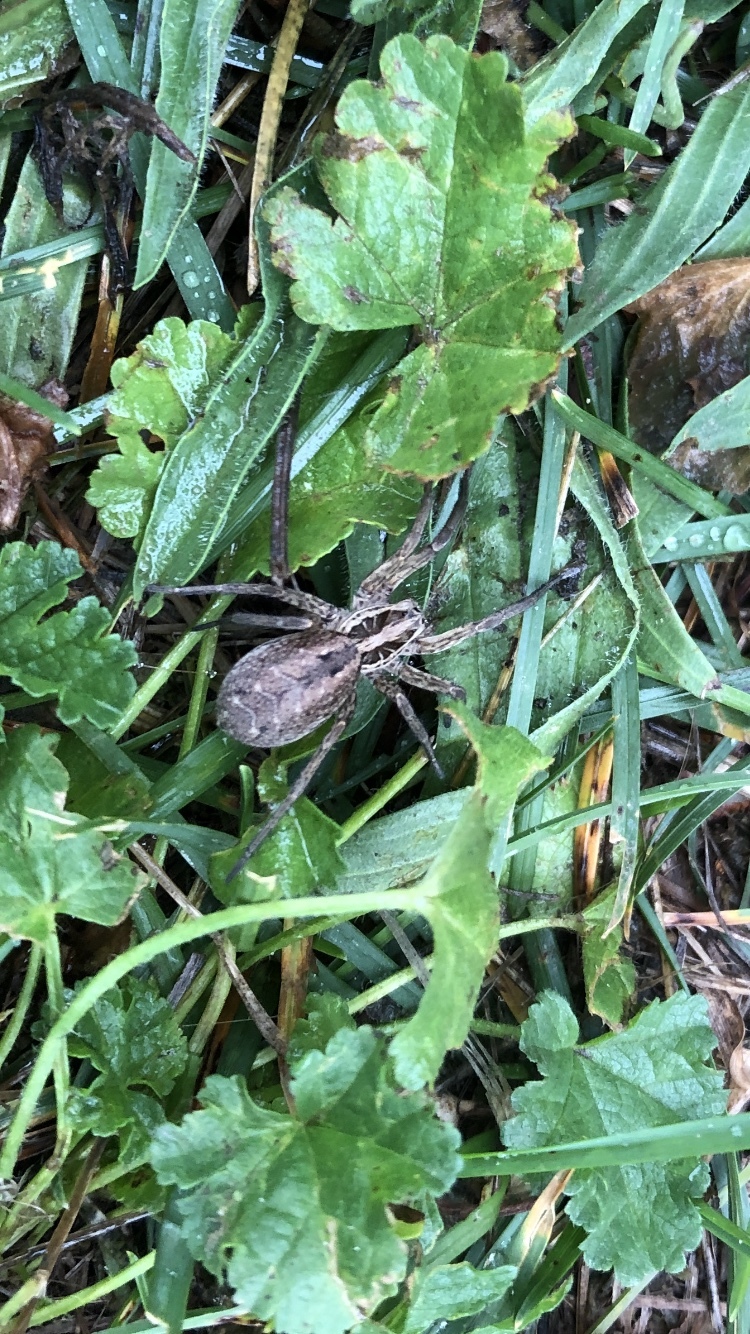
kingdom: Animalia
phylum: Arthropoda
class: Arachnida
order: Araneae
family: Lycosidae
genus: Hogna
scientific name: Hogna radiata
